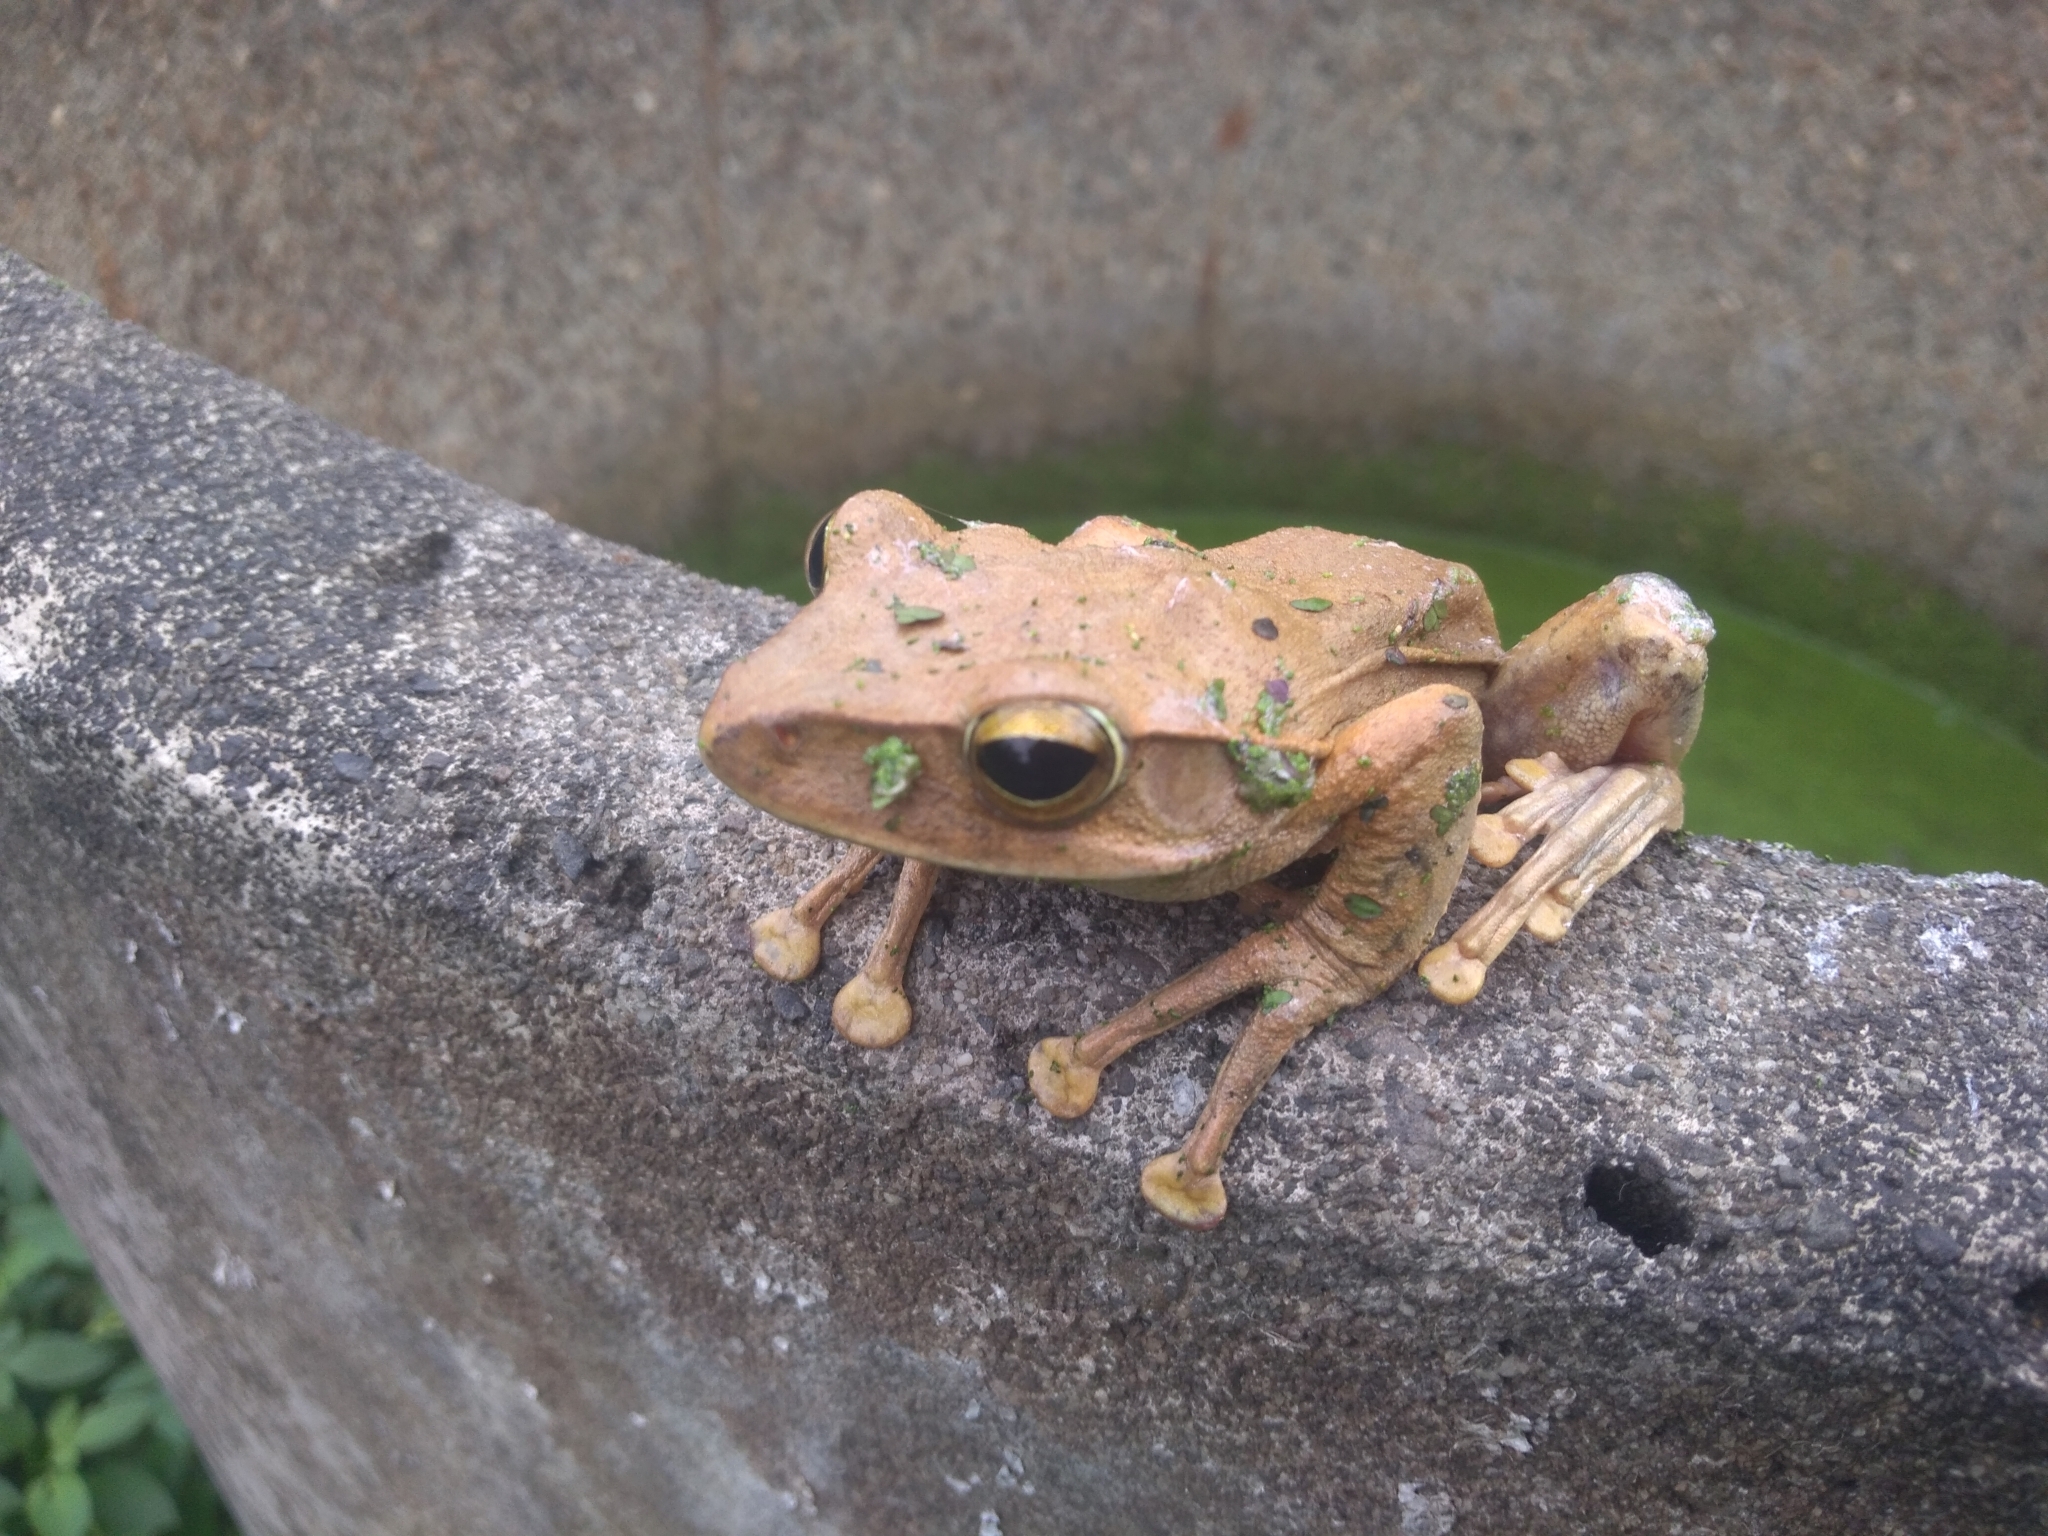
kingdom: Animalia
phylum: Chordata
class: Amphibia
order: Anura
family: Rhacophoridae
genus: Polypedates
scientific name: Polypedates megacephalus
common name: Hong kong whipping frog
